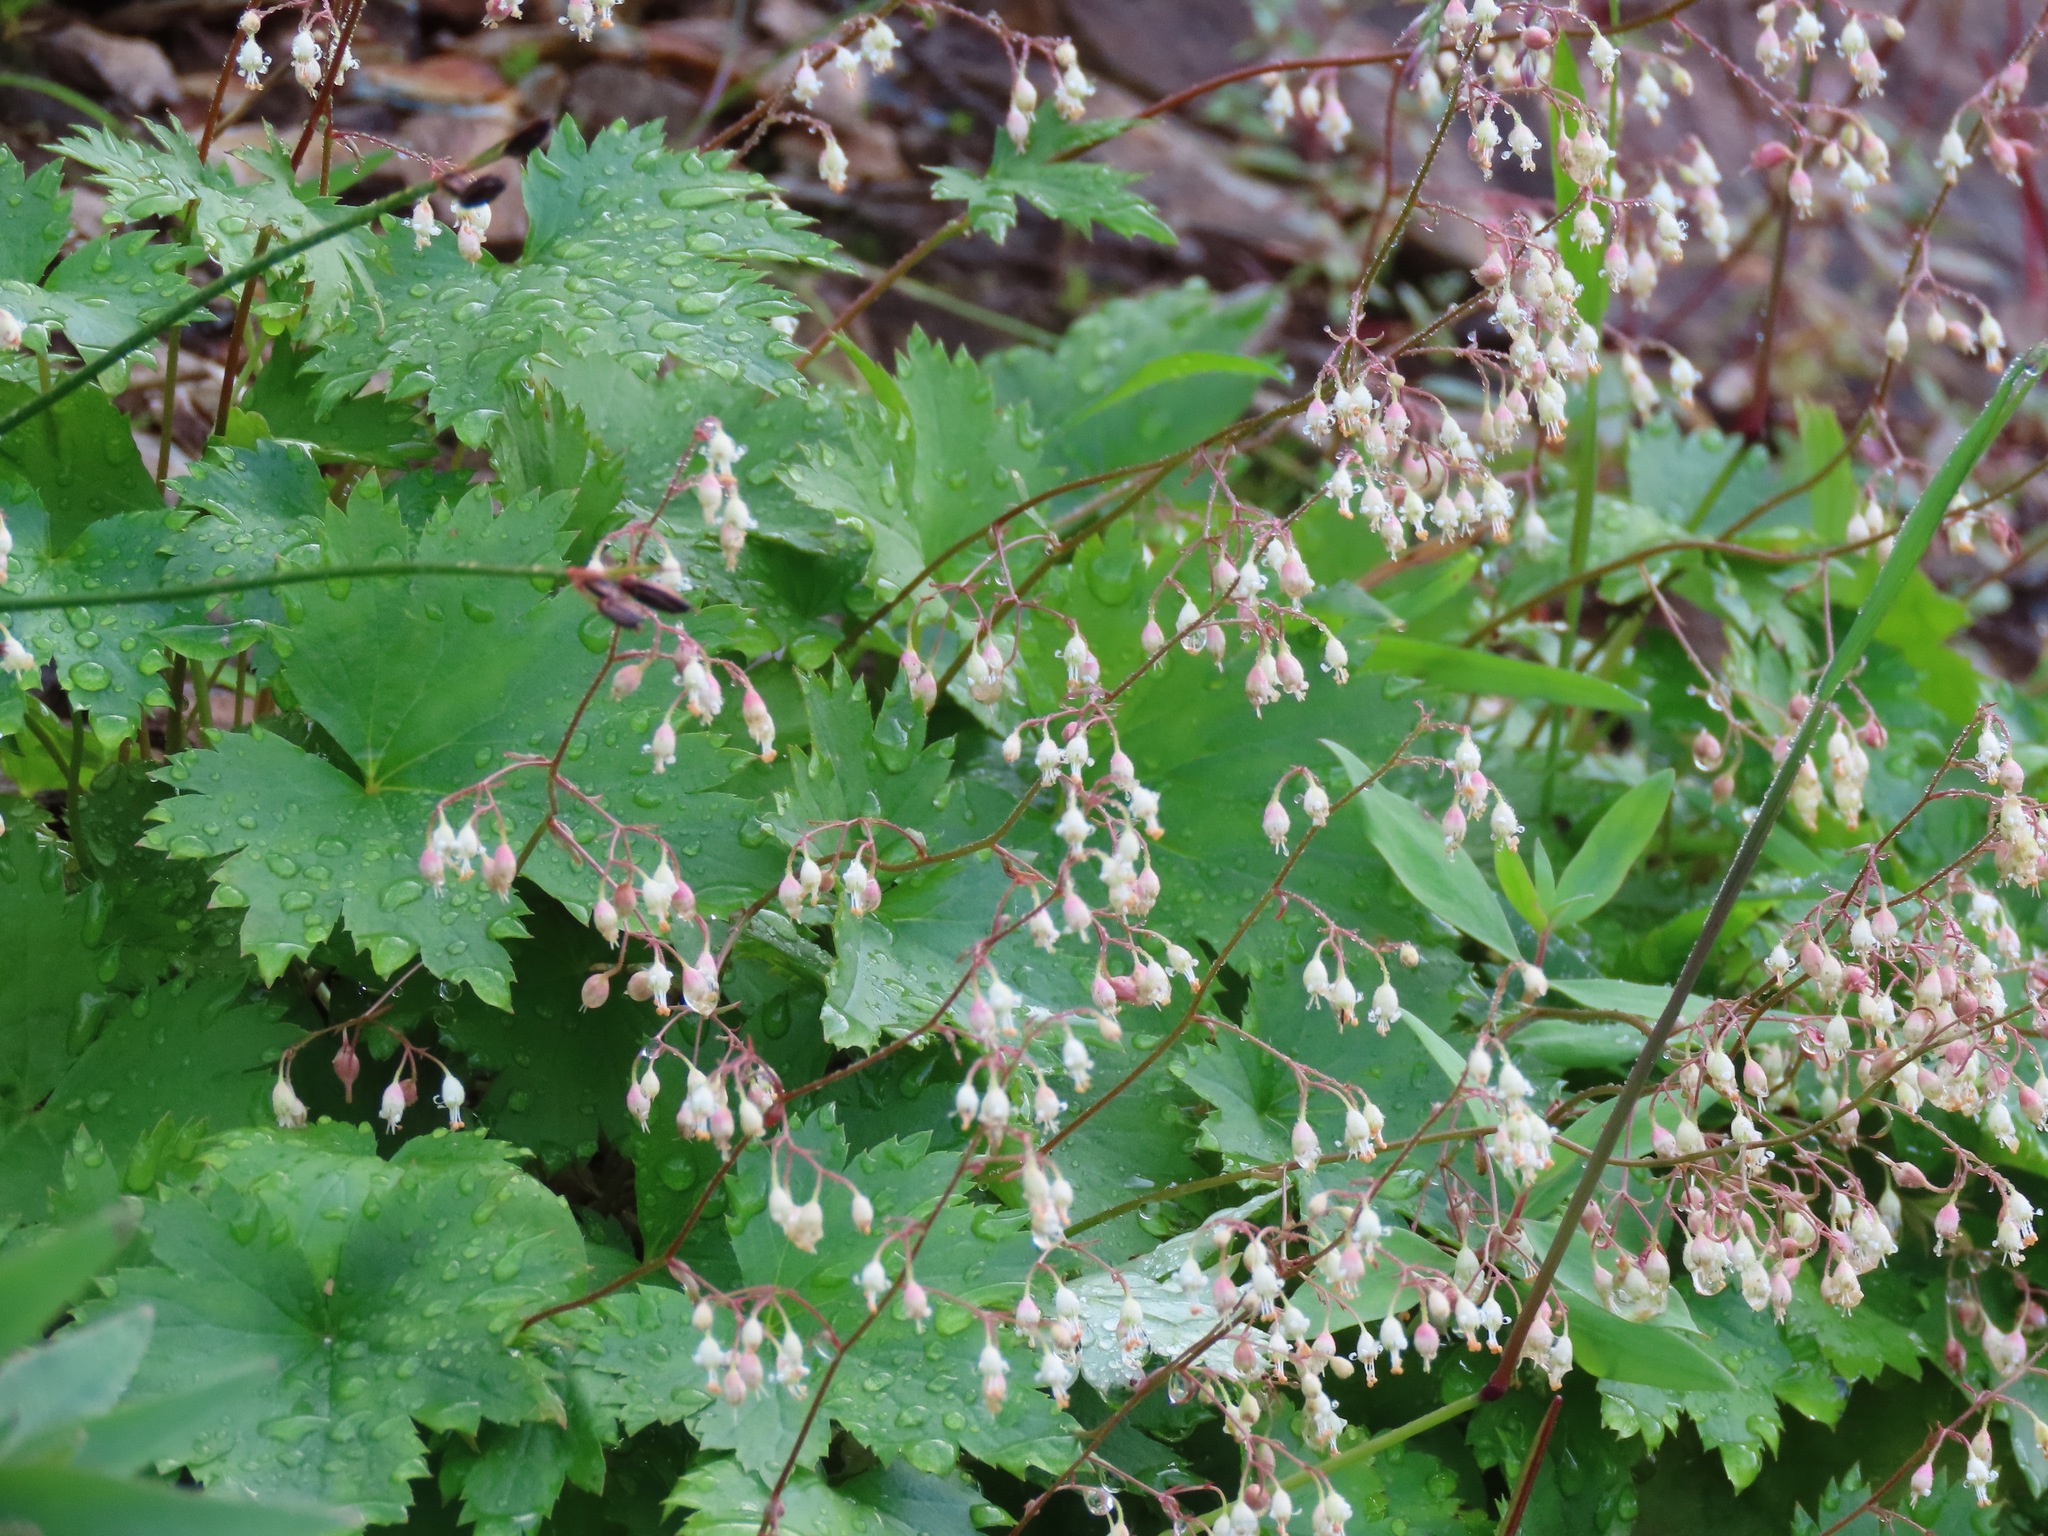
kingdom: Plantae
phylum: Tracheophyta
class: Magnoliopsida
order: Saxifragales
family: Saxifragaceae
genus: Heuchera
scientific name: Heuchera glabra
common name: Alpine alumroot
